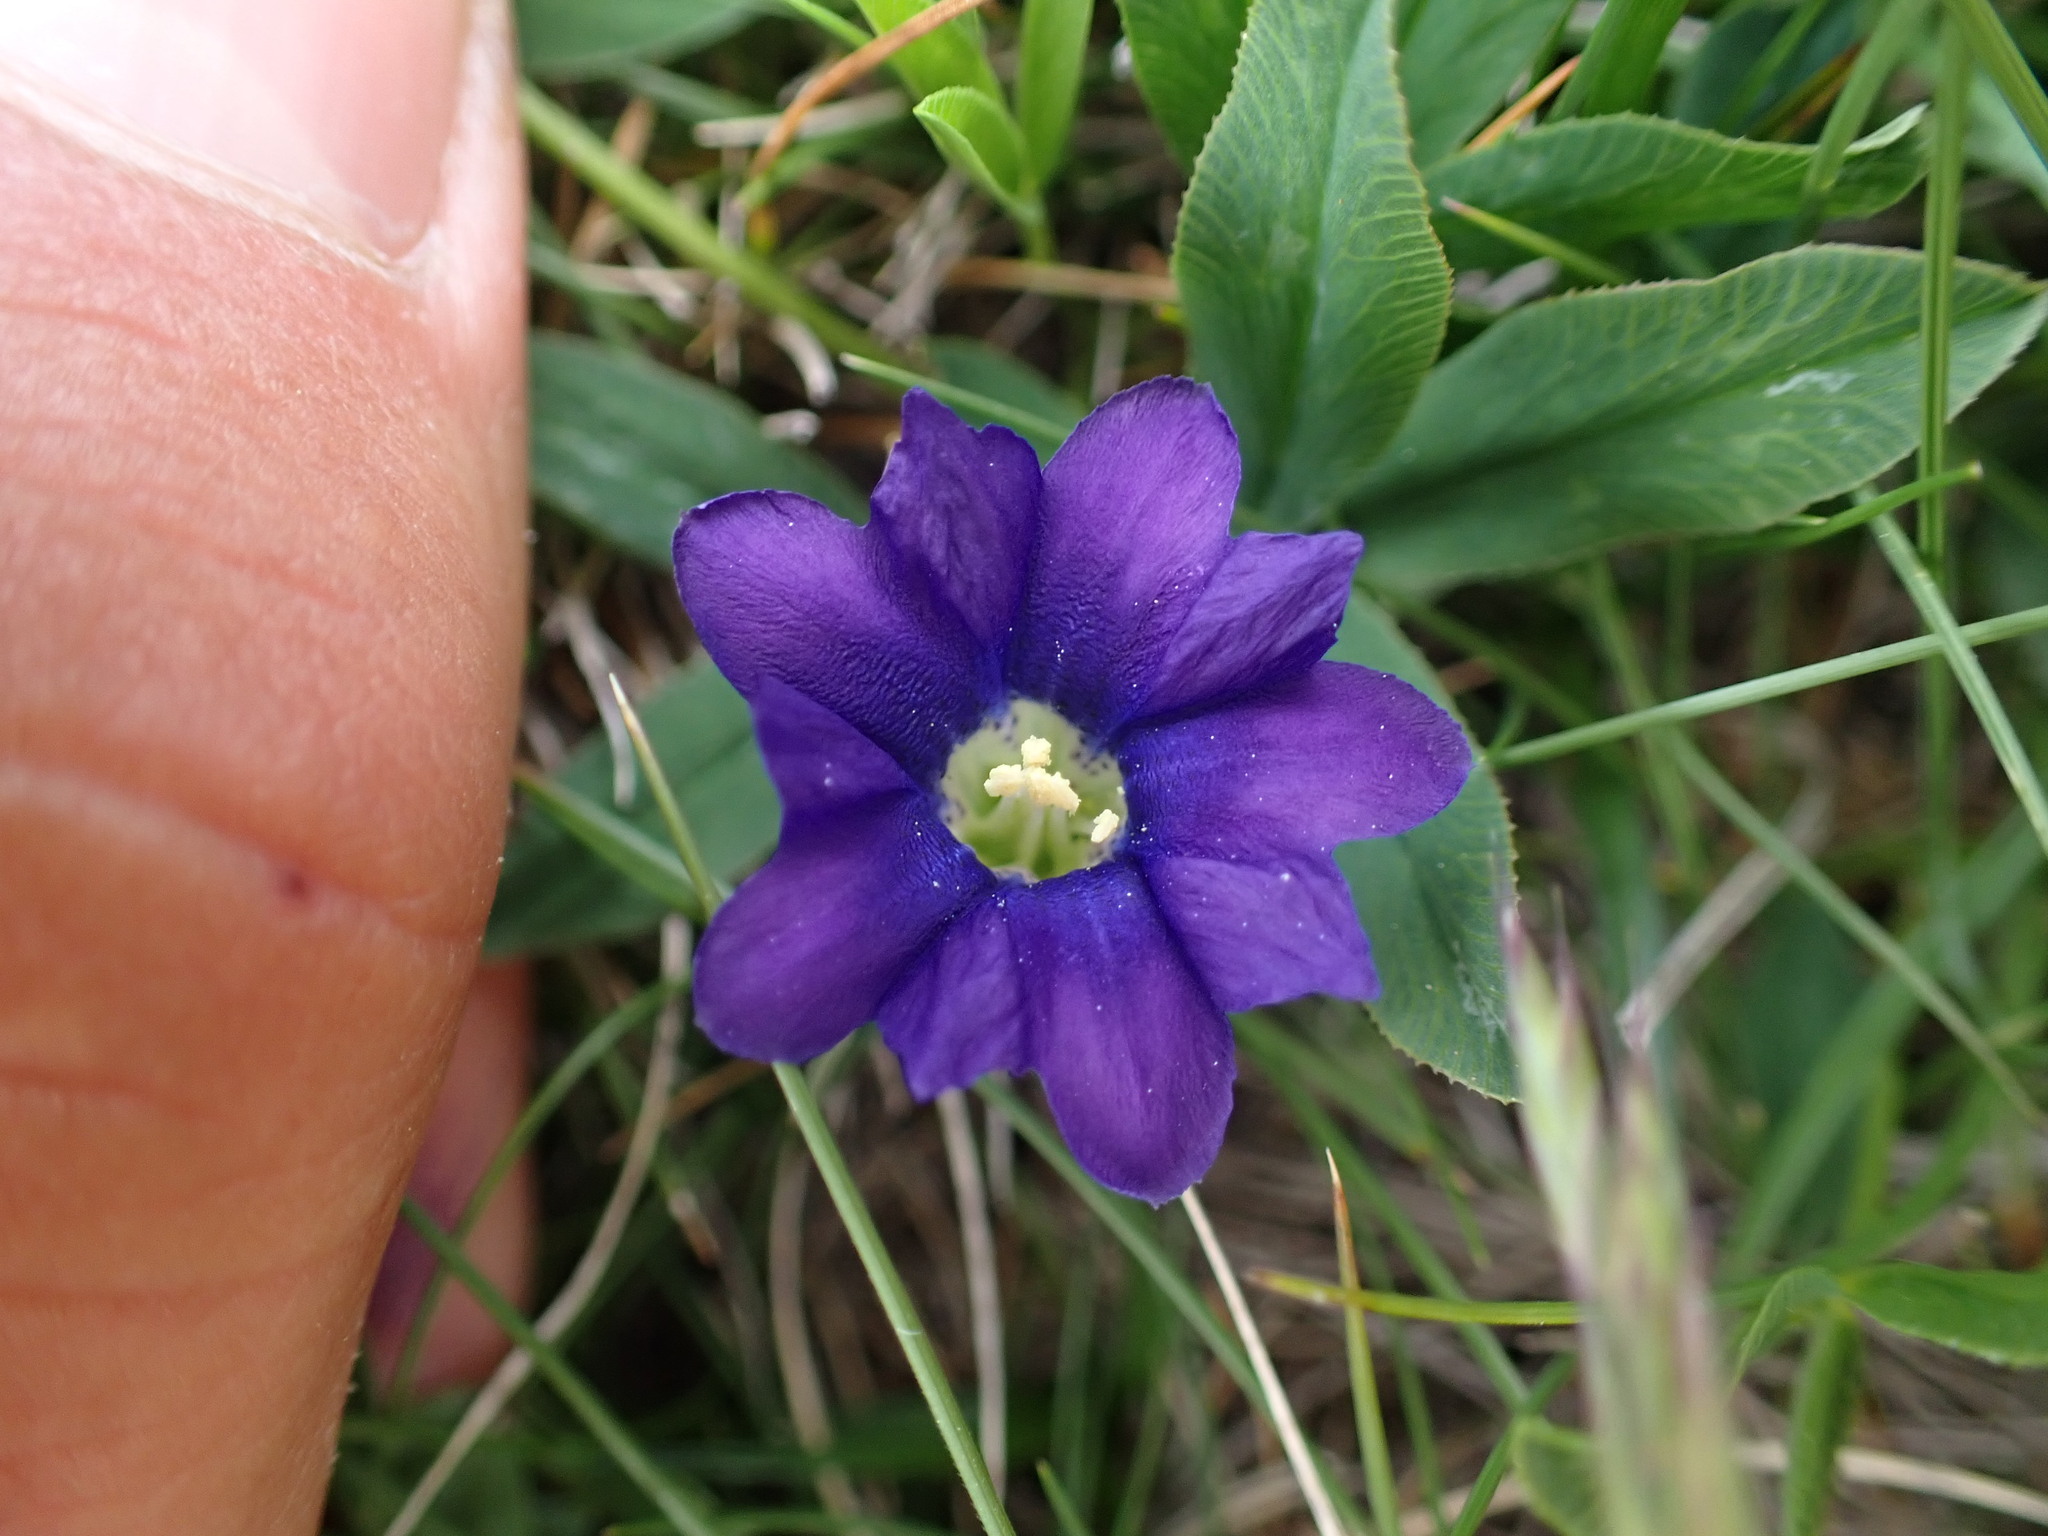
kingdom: Plantae
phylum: Tracheophyta
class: Magnoliopsida
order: Gentianales
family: Gentianaceae
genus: Gentiana
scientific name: Gentiana pyrenaica
